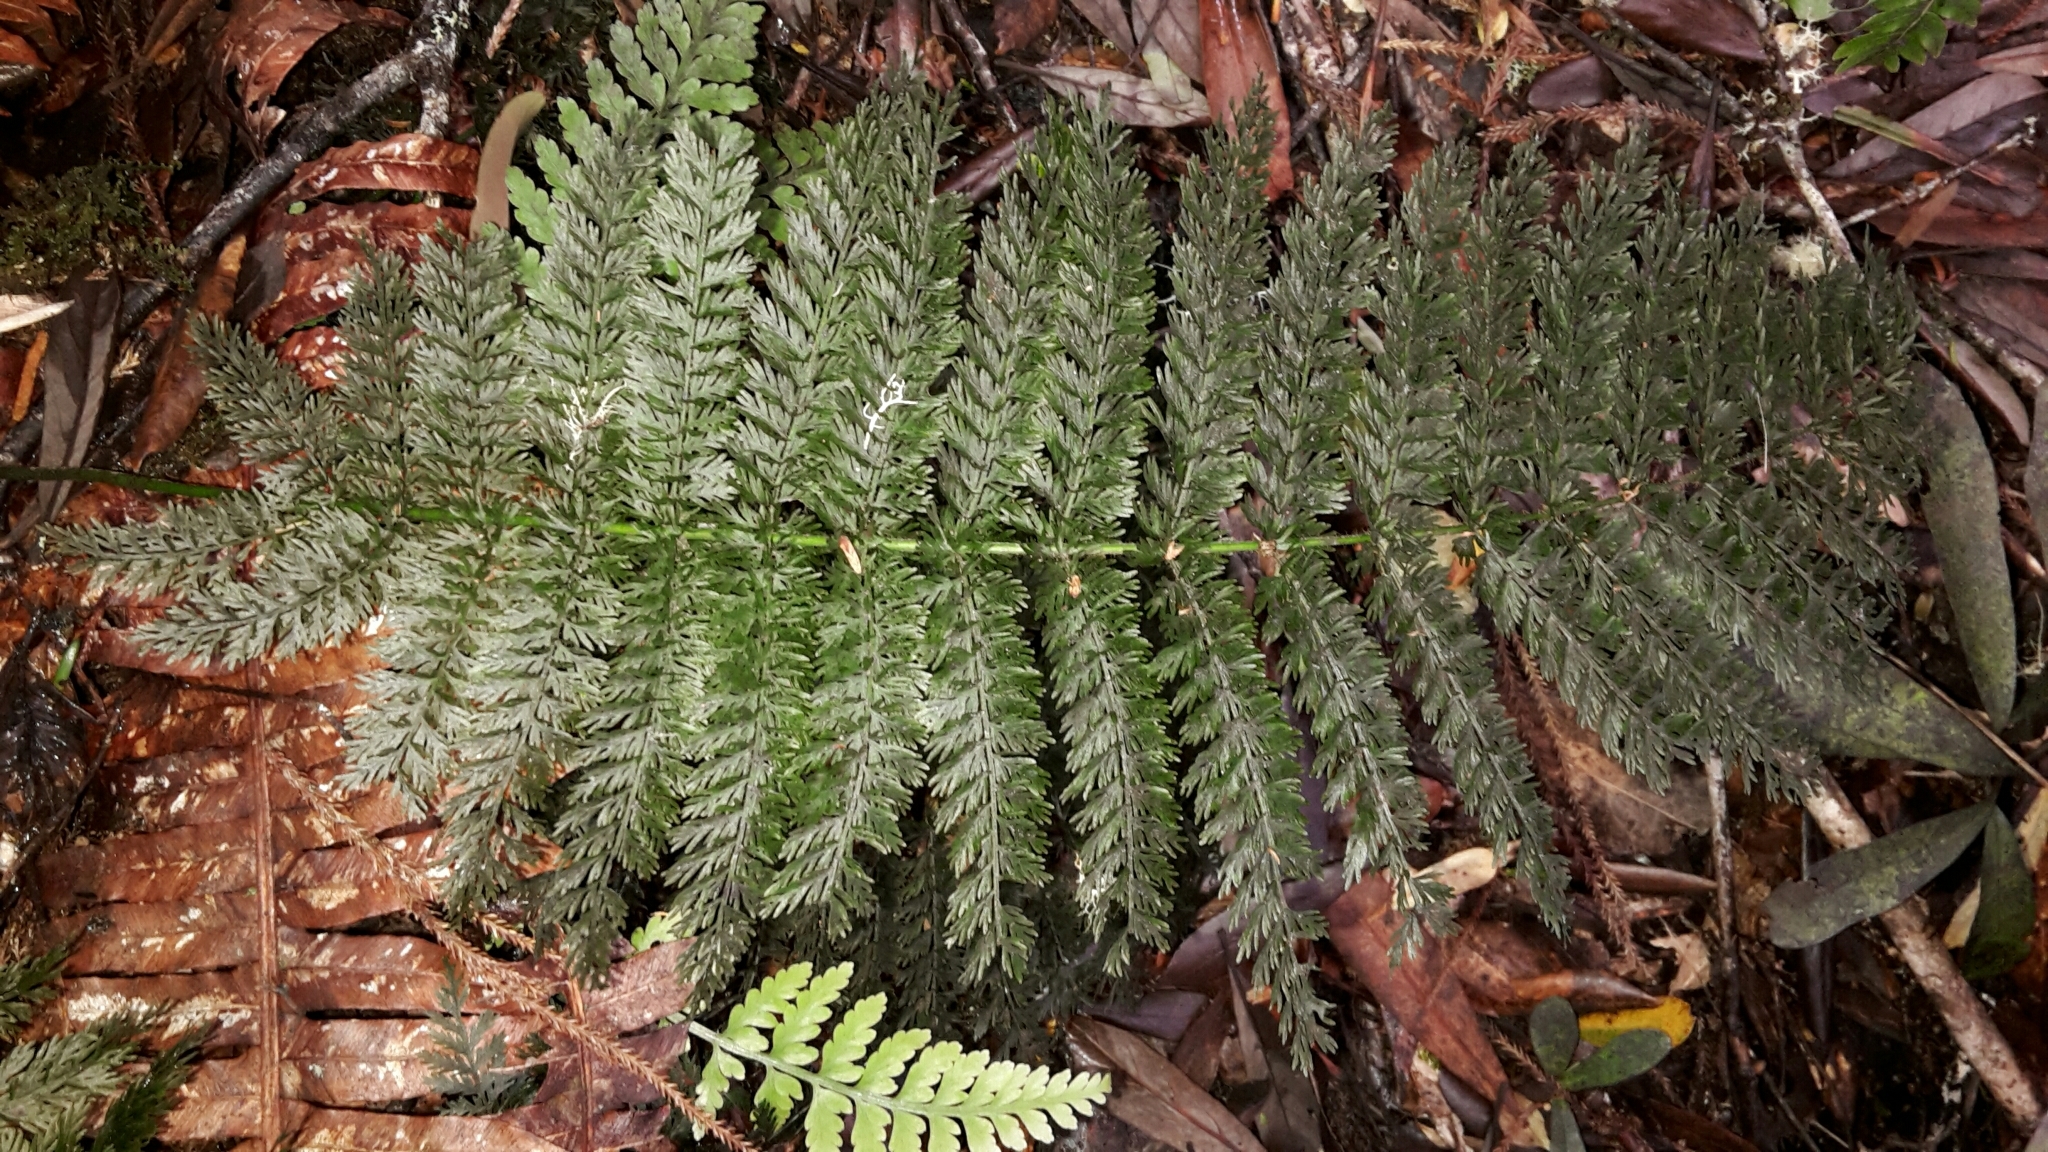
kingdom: Plantae
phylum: Tracheophyta
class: Polypodiopsida
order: Osmundales
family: Osmundaceae
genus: Leptopteris
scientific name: Leptopteris intermedia
